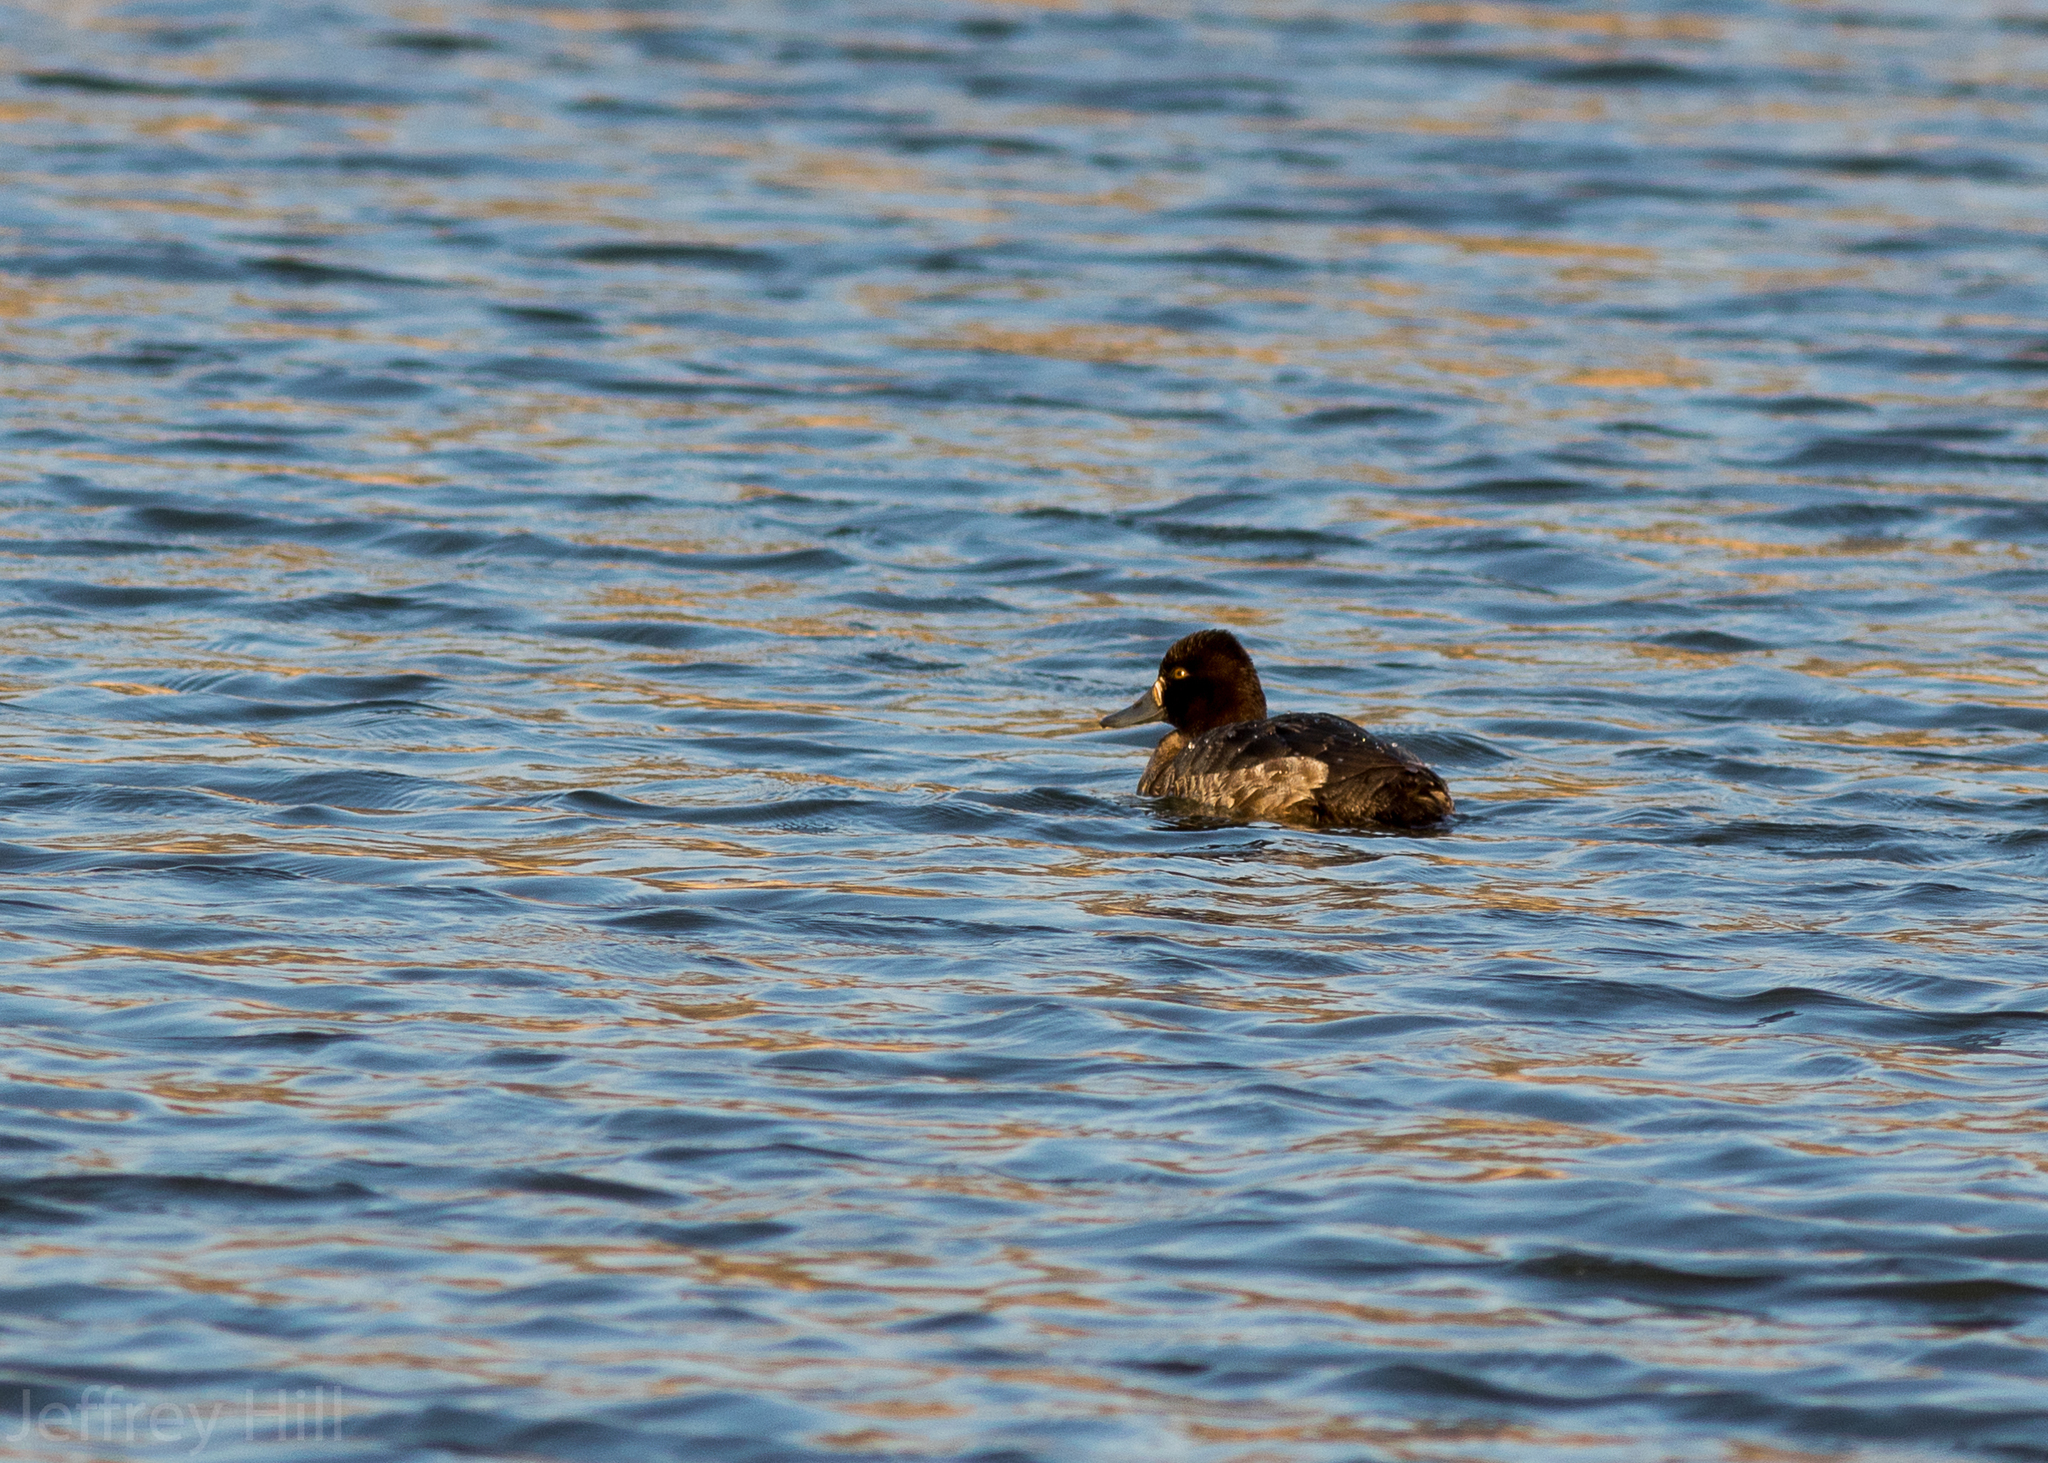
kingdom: Animalia
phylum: Chordata
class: Aves
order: Anseriformes
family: Anatidae
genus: Aythya
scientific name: Aythya affinis
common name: Lesser scaup
